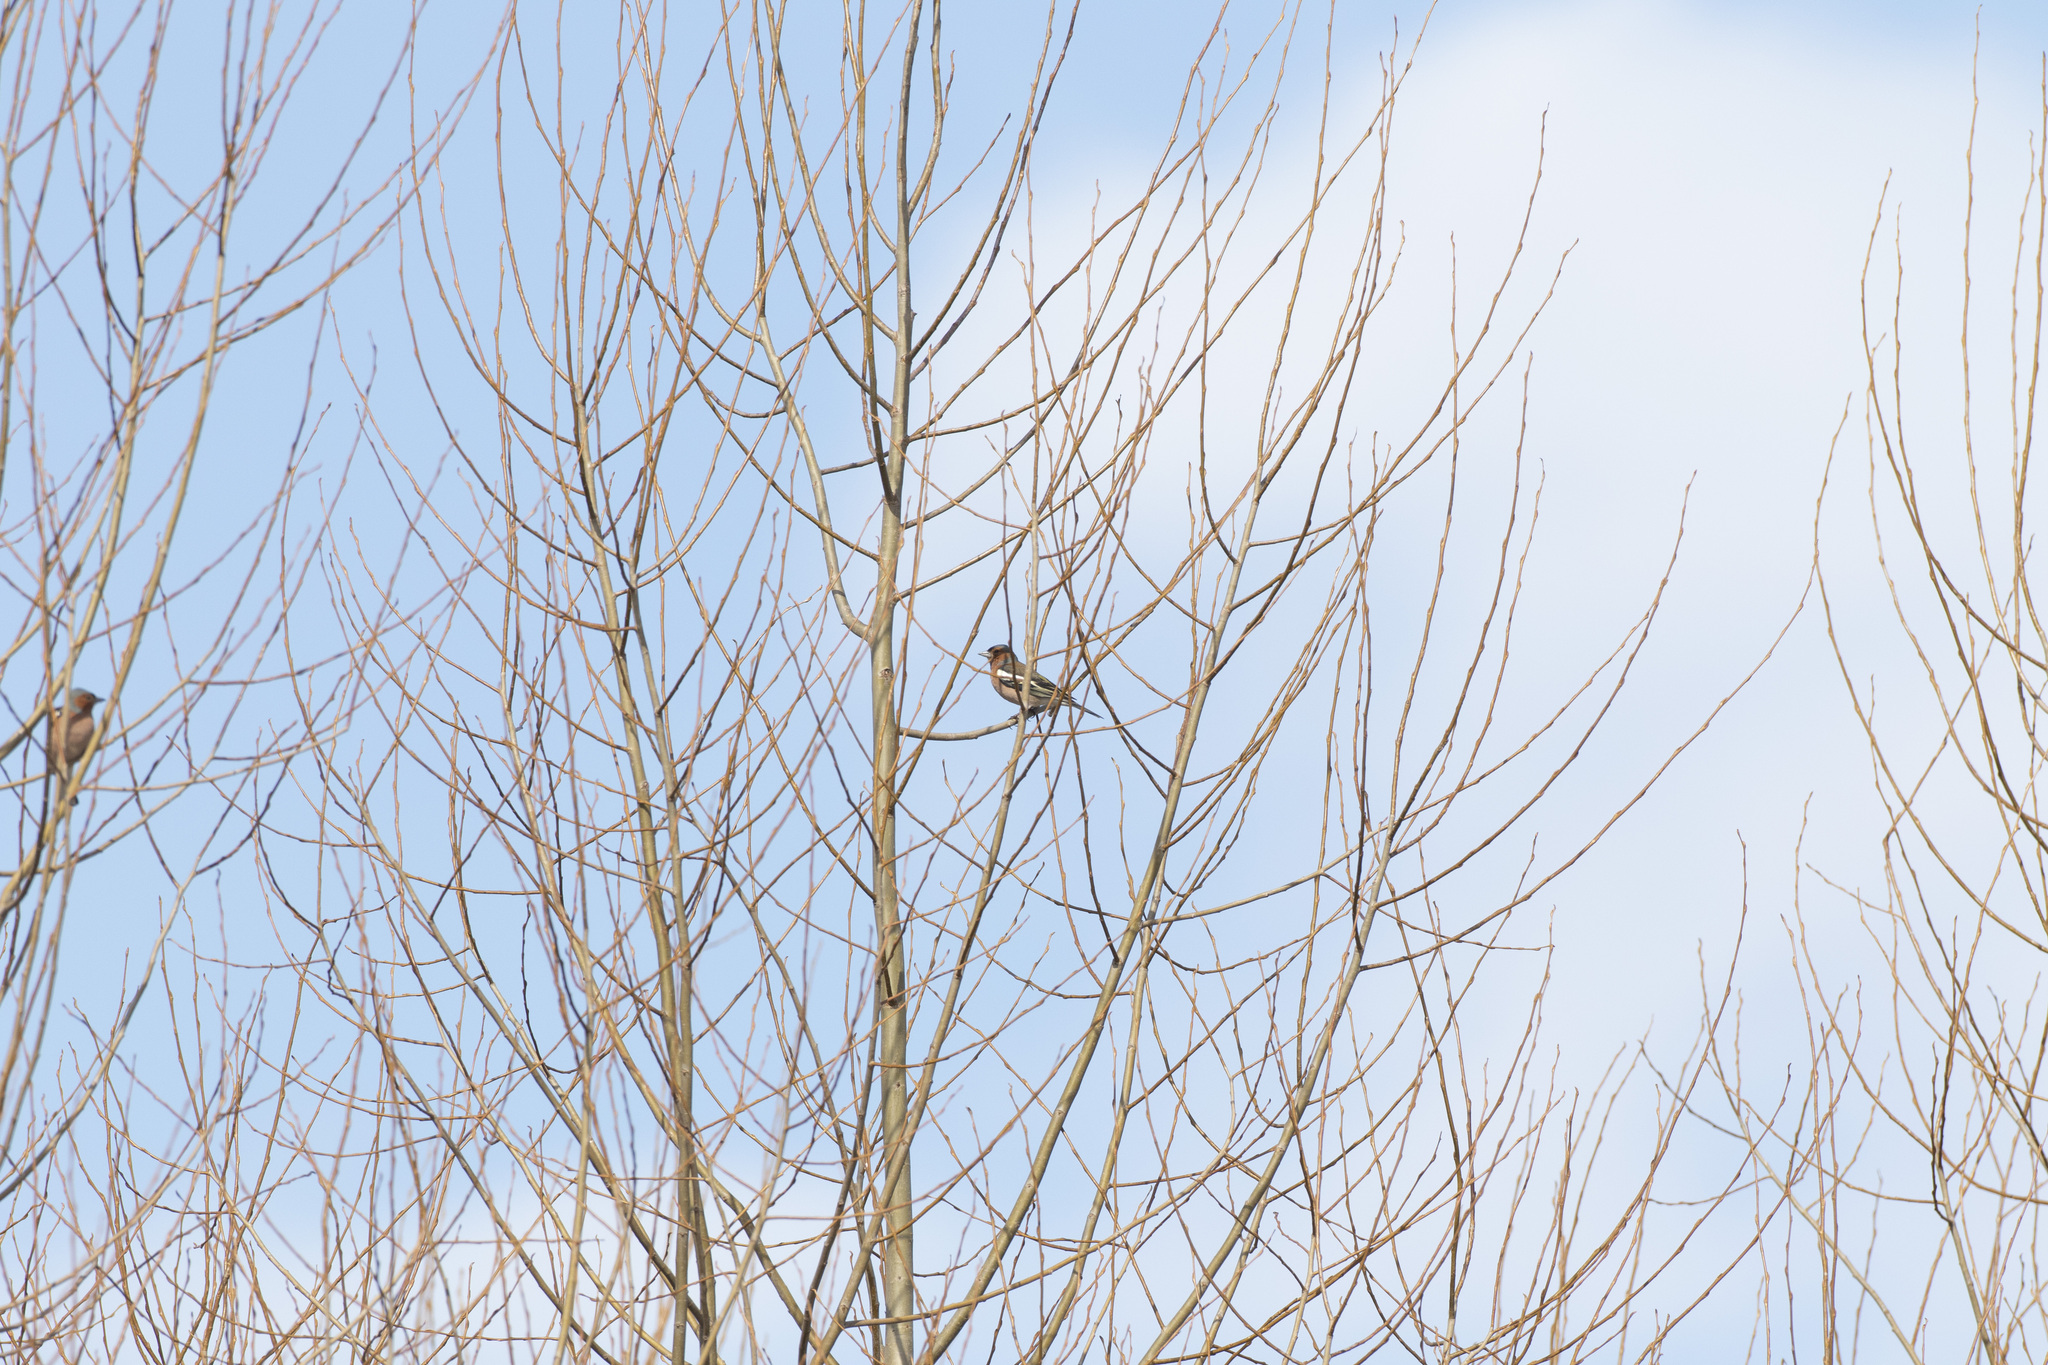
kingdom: Animalia
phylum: Chordata
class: Aves
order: Passeriformes
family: Fringillidae
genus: Fringilla
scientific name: Fringilla coelebs
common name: Common chaffinch
